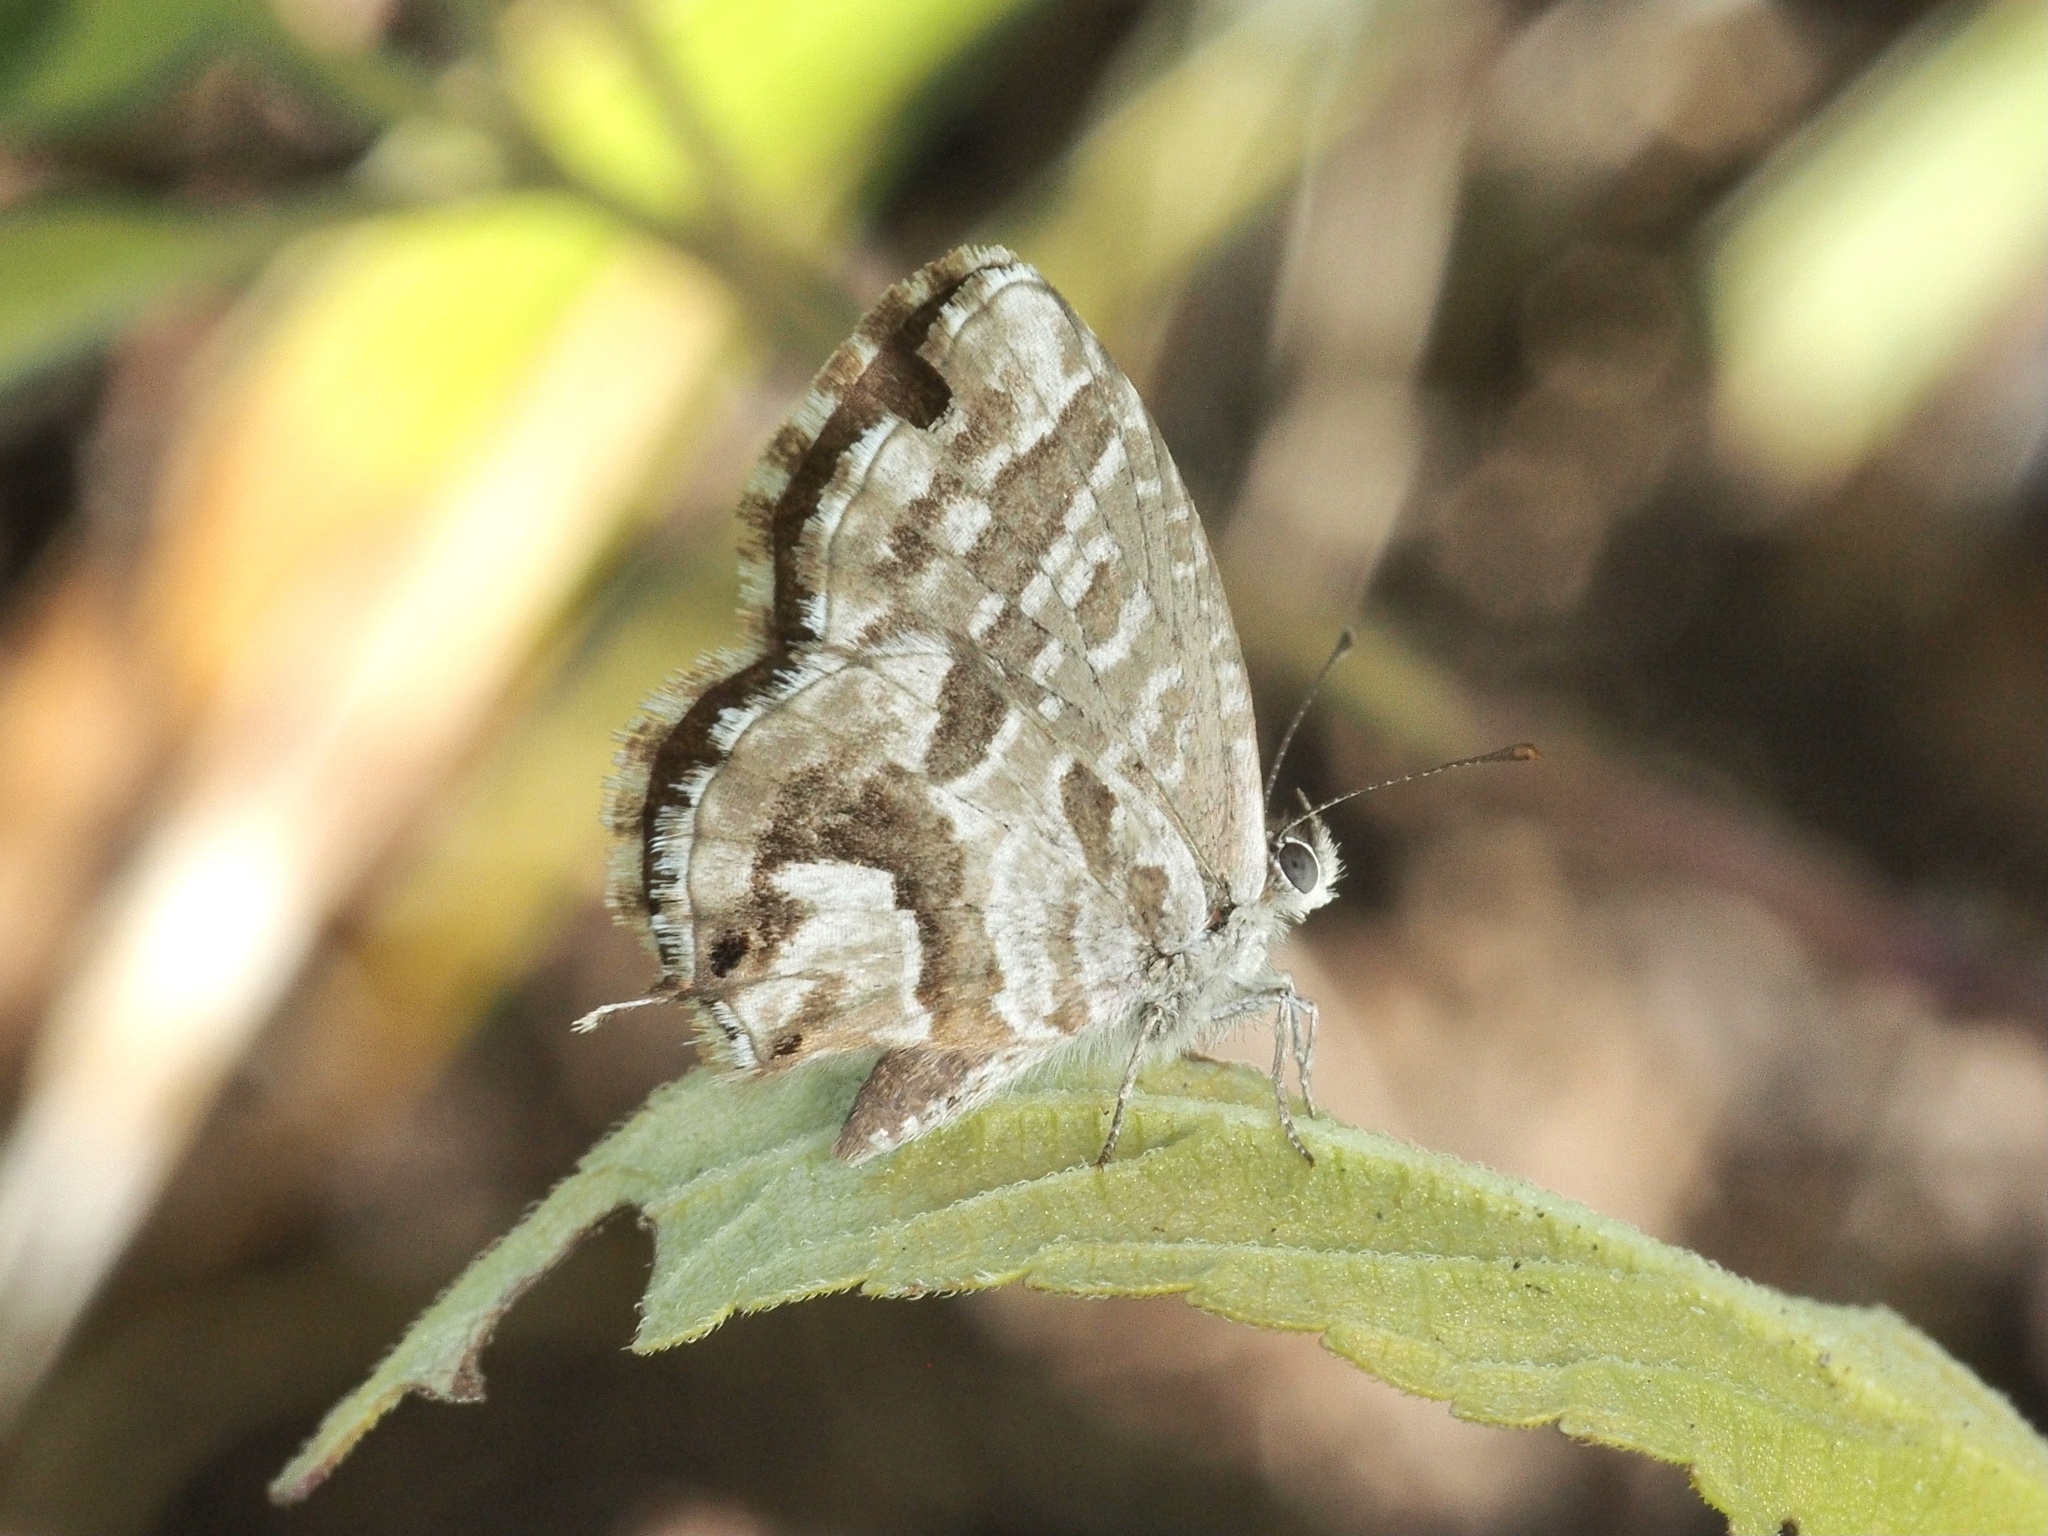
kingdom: Animalia
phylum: Arthropoda
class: Insecta
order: Lepidoptera
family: Lycaenidae
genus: Cacyreus
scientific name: Cacyreus marshalli
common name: Geranium bronze
